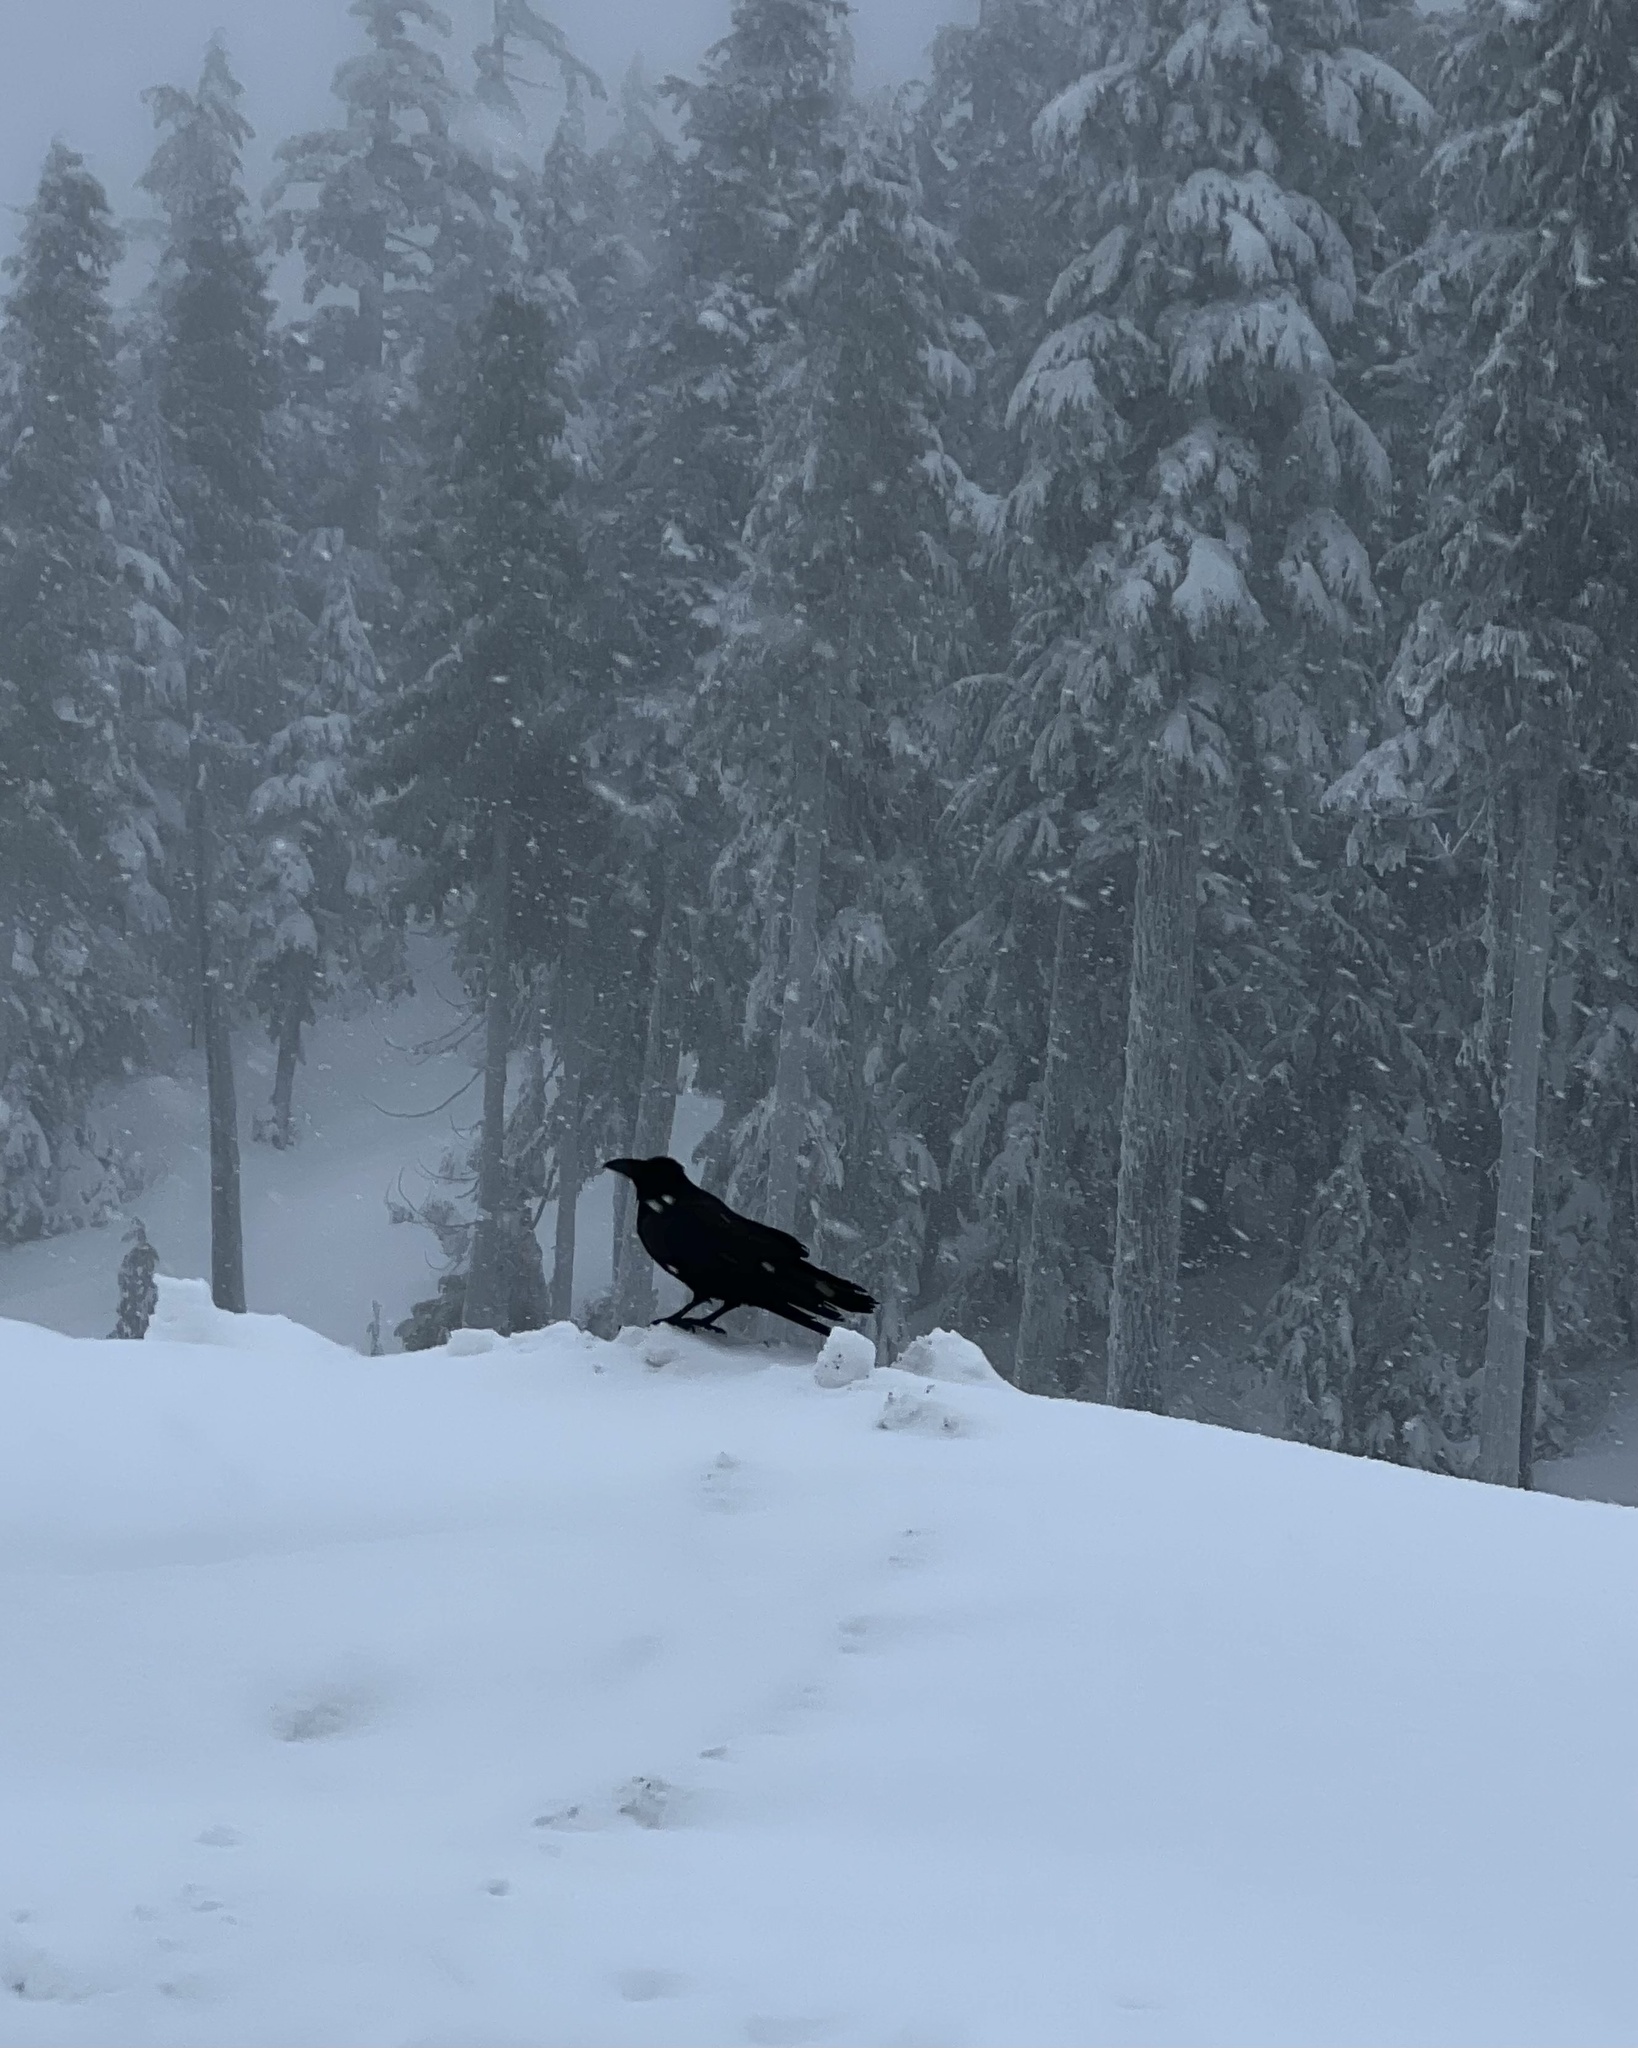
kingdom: Animalia
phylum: Chordata
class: Aves
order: Passeriformes
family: Corvidae
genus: Corvus
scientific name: Corvus corax
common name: Common raven
